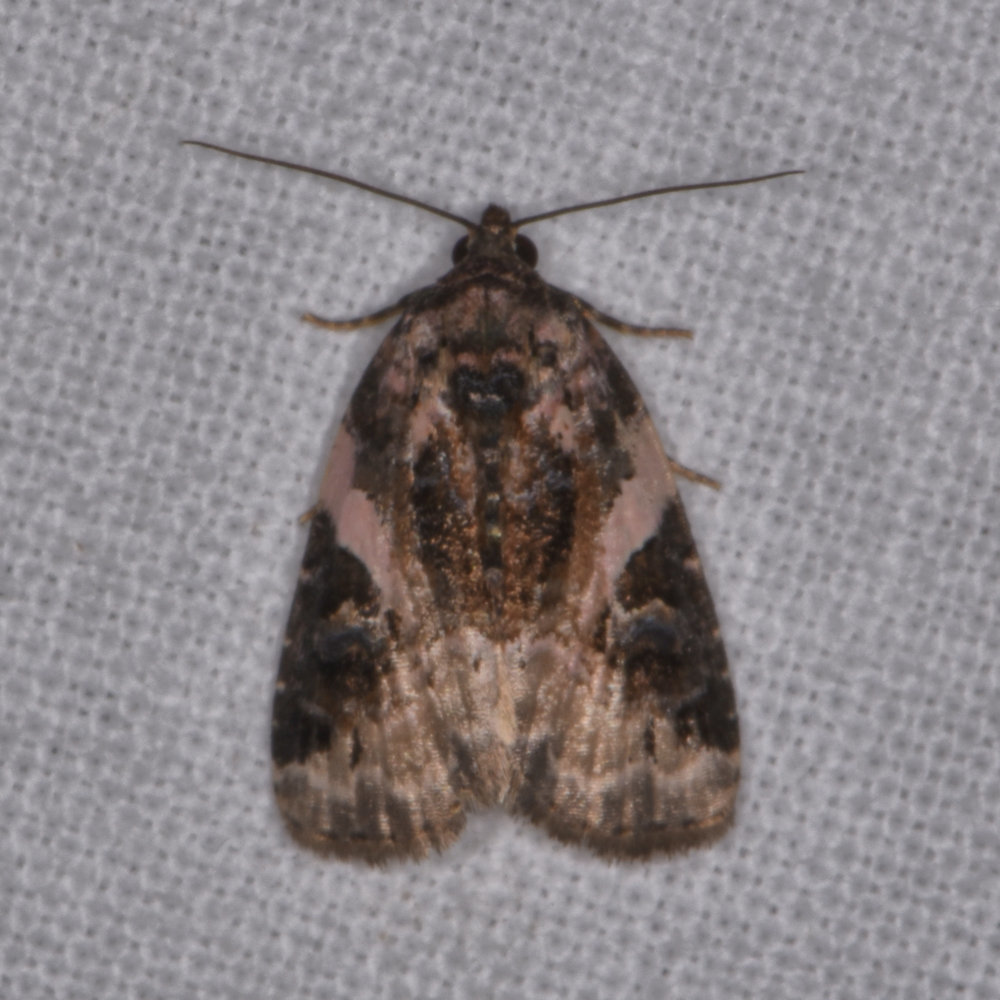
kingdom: Animalia
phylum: Arthropoda
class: Insecta
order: Lepidoptera
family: Noctuidae
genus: Pseudeustrotia
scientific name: Pseudeustrotia carneola
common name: Pink-barred lithacodia moth
